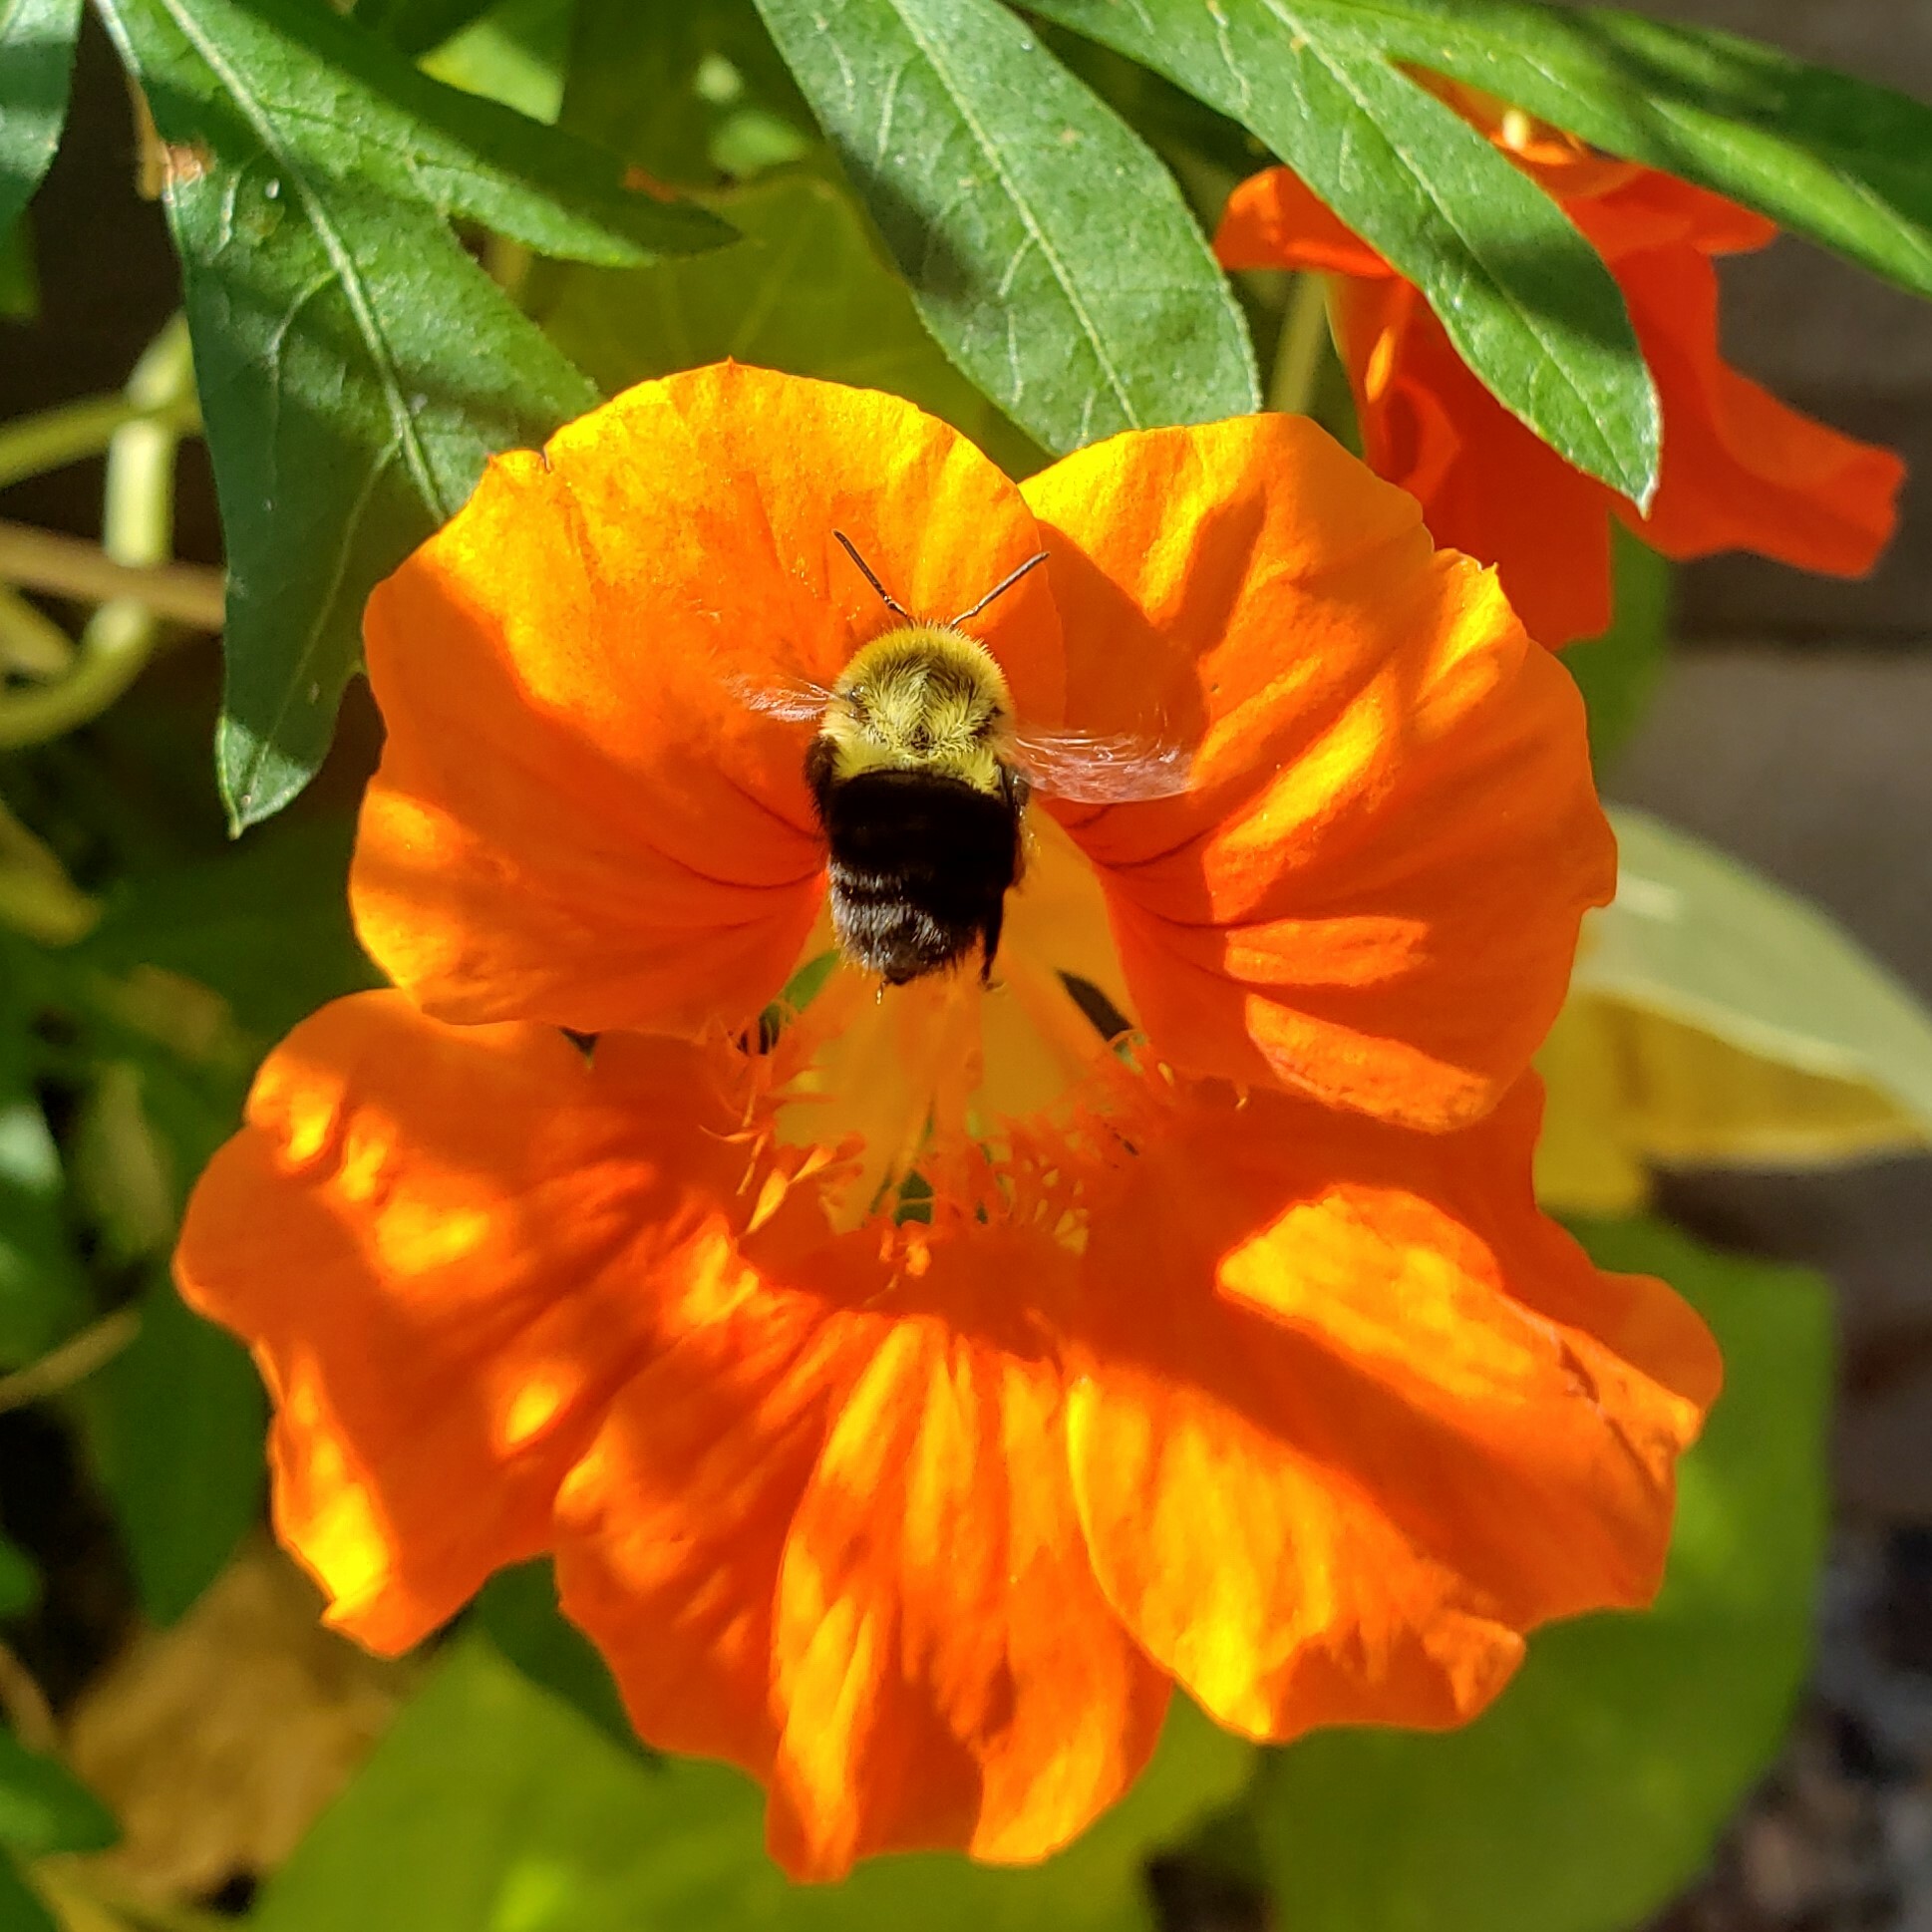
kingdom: Animalia
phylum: Arthropoda
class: Insecta
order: Hymenoptera
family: Apidae
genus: Bombus
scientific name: Bombus impatiens
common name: Common eastern bumble bee
